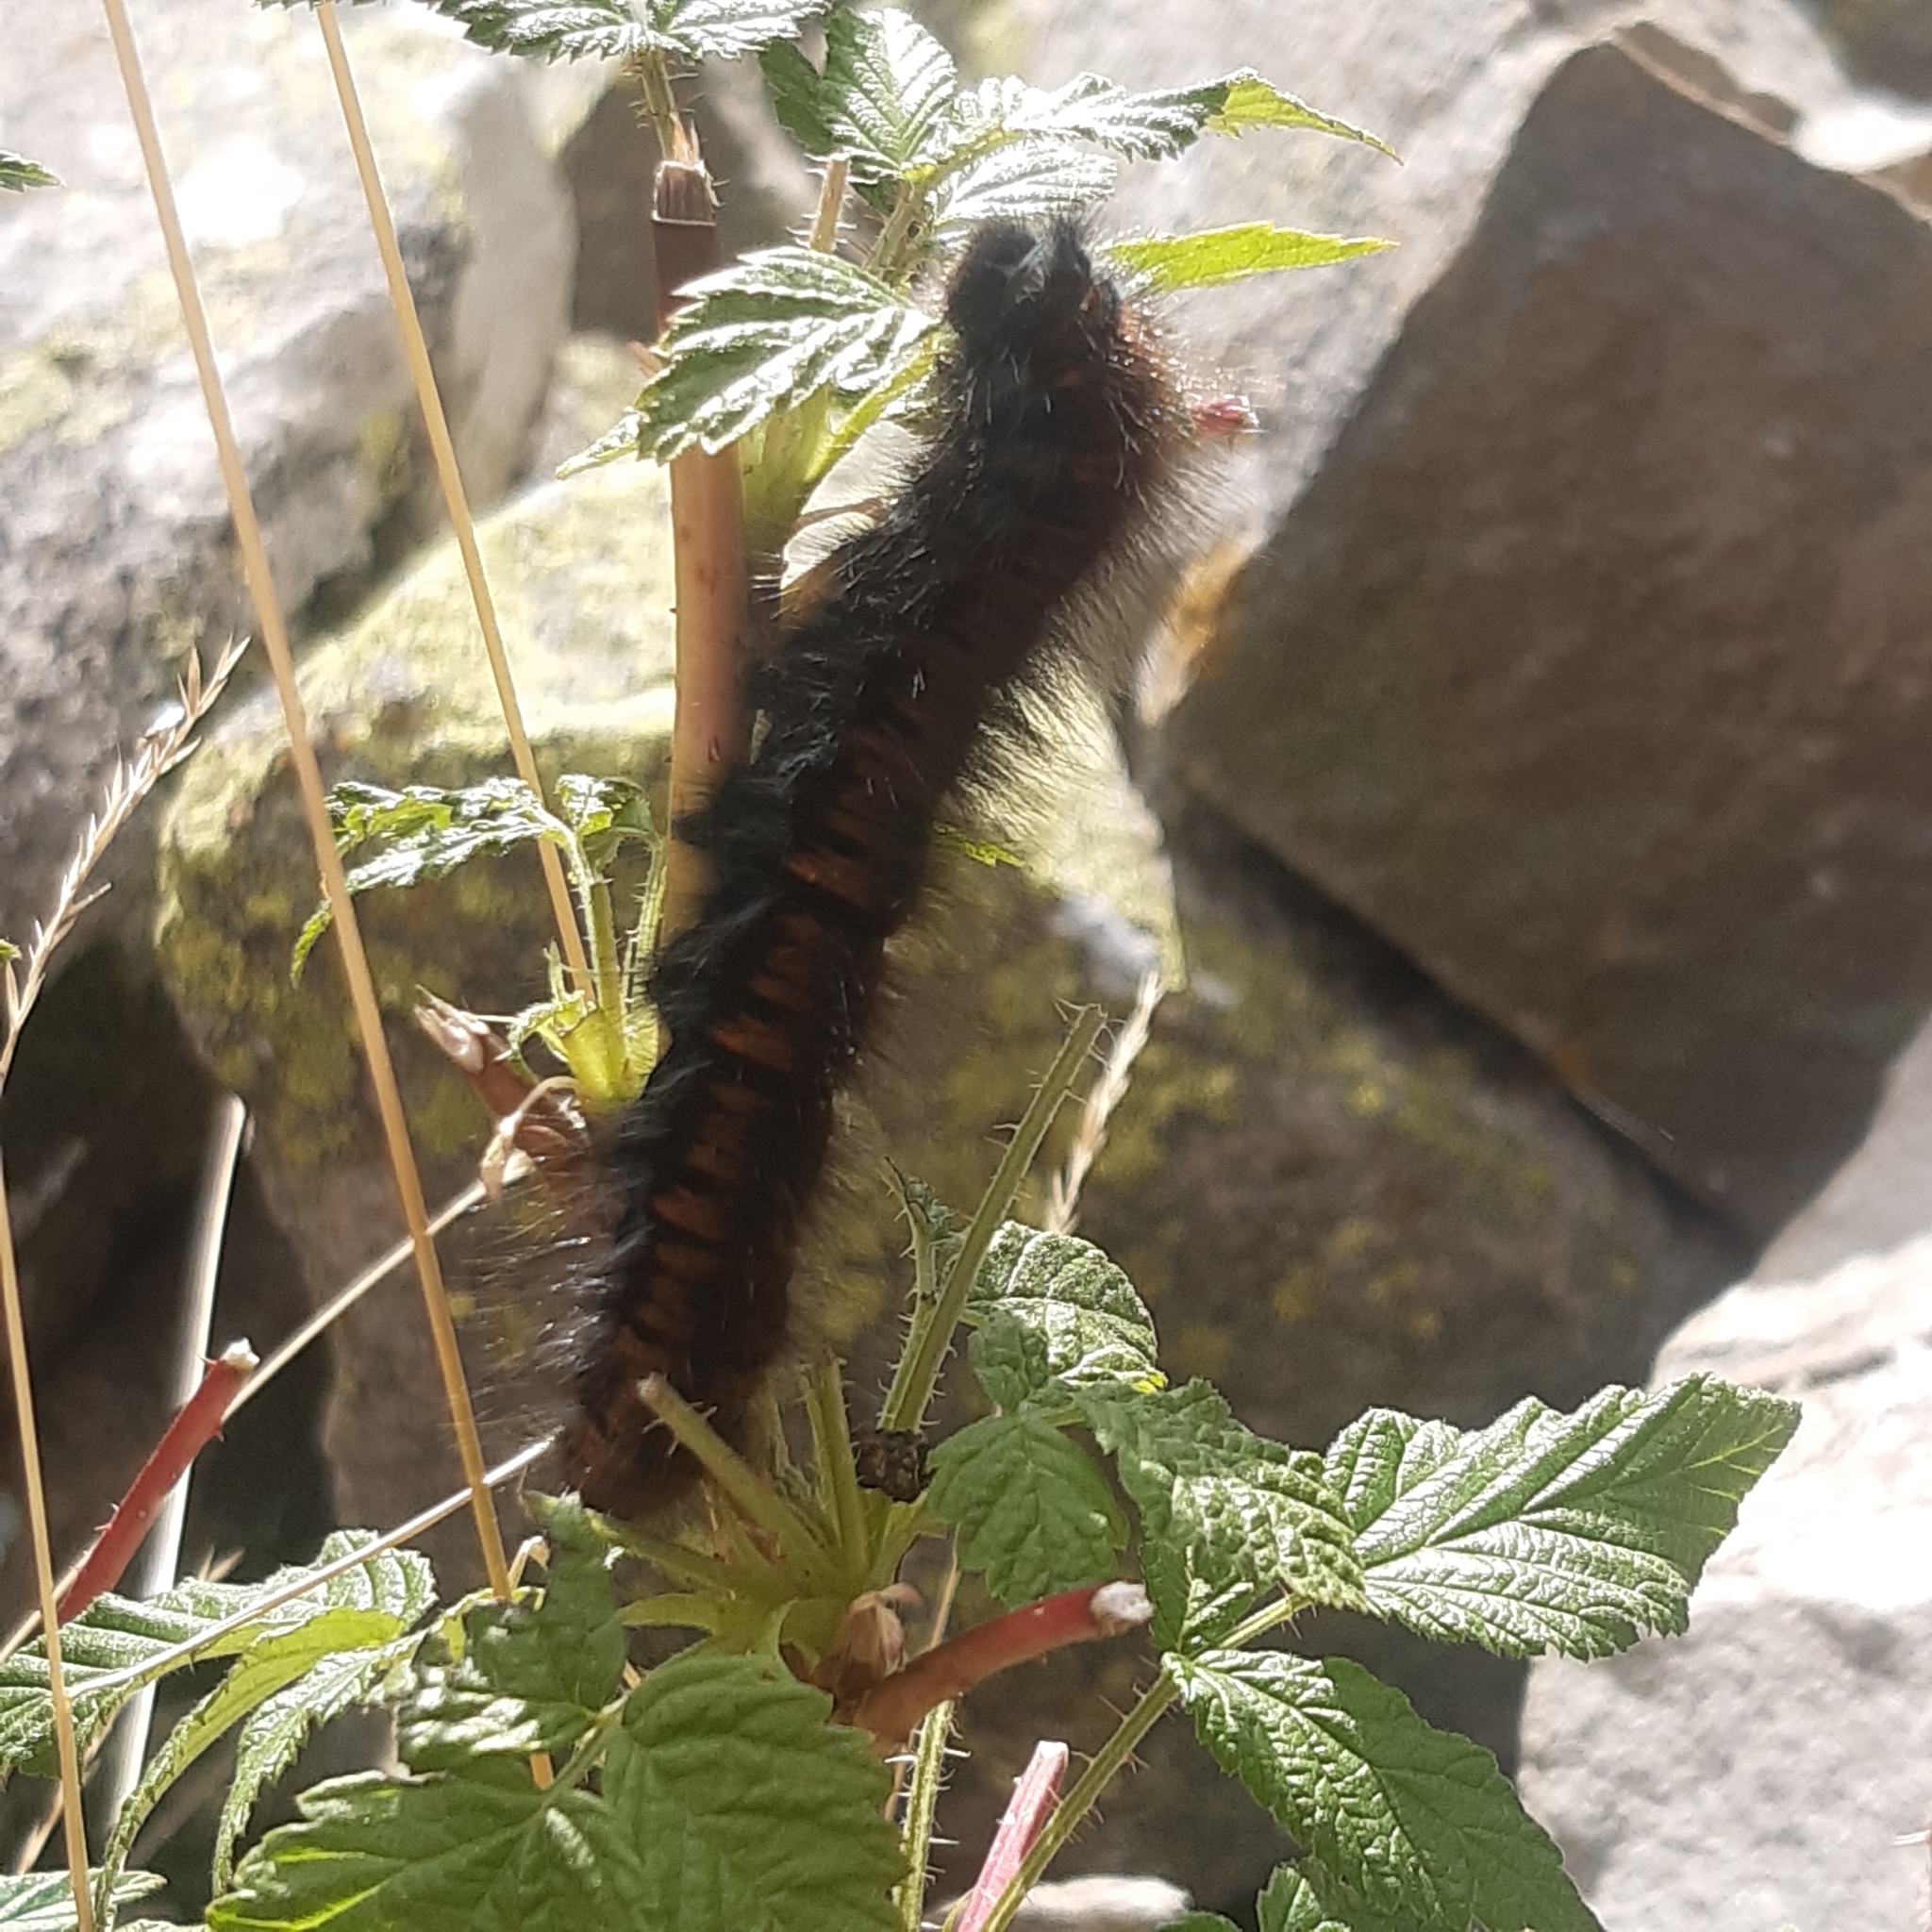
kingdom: Animalia
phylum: Arthropoda
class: Insecta
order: Lepidoptera
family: Lasiocampidae
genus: Macrothylacia
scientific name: Macrothylacia rubi
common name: Fox moth
